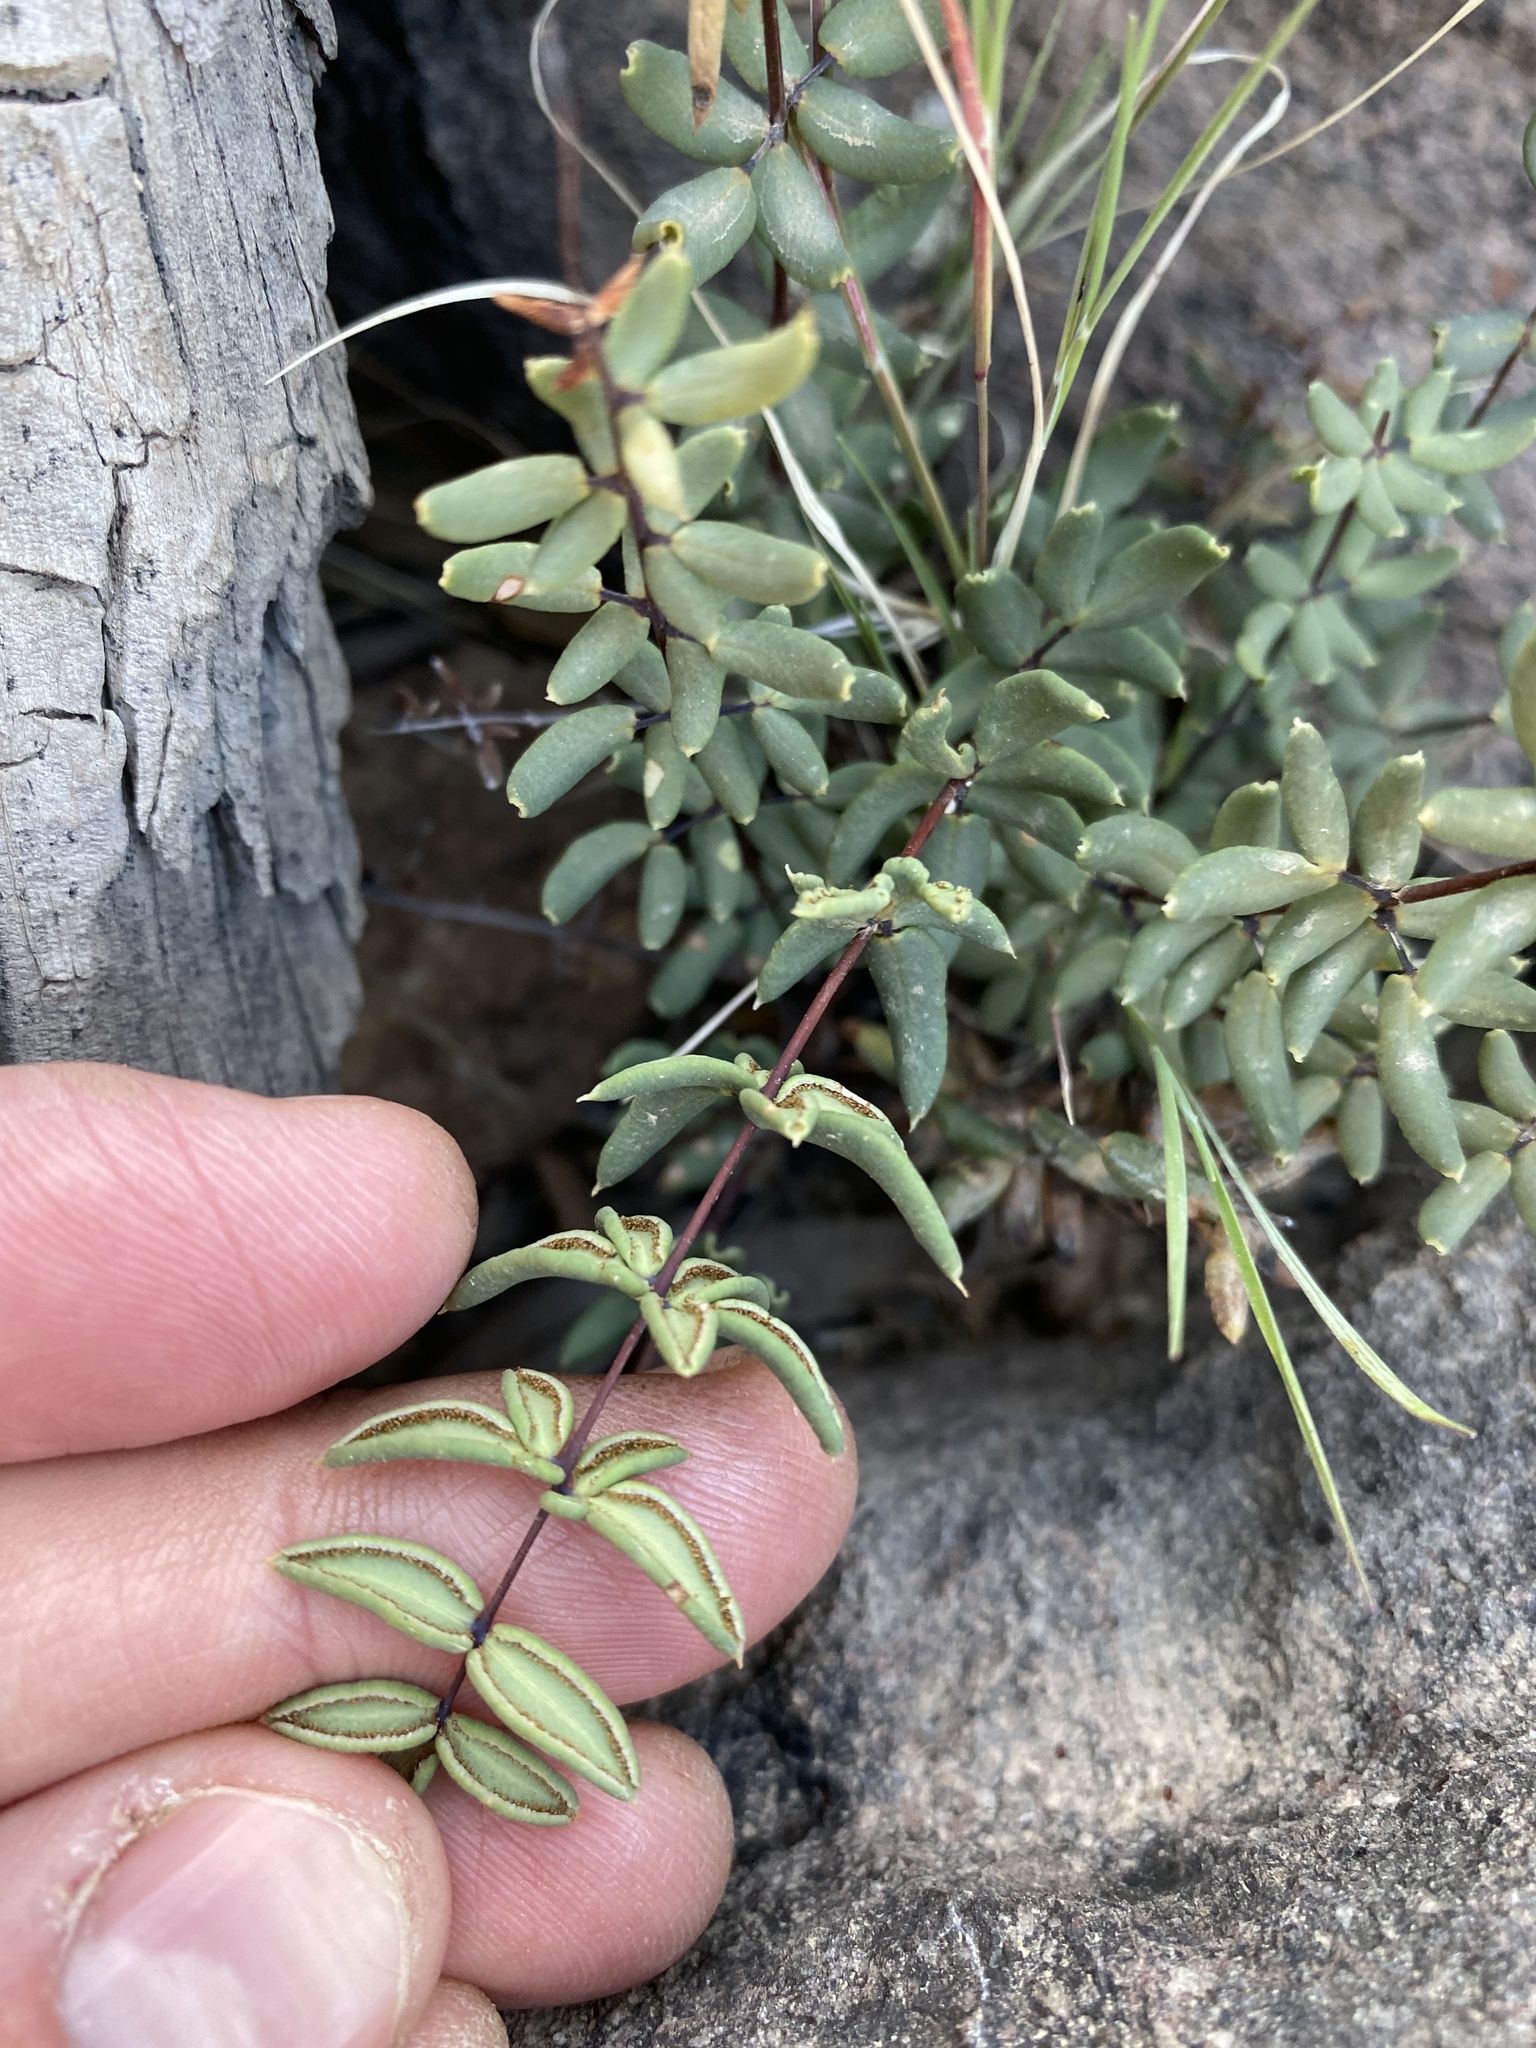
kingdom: Plantae
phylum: Tracheophyta
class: Polypodiopsida
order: Polypodiales
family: Pteridaceae
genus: Pellaea
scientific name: Pellaea wrightiana
